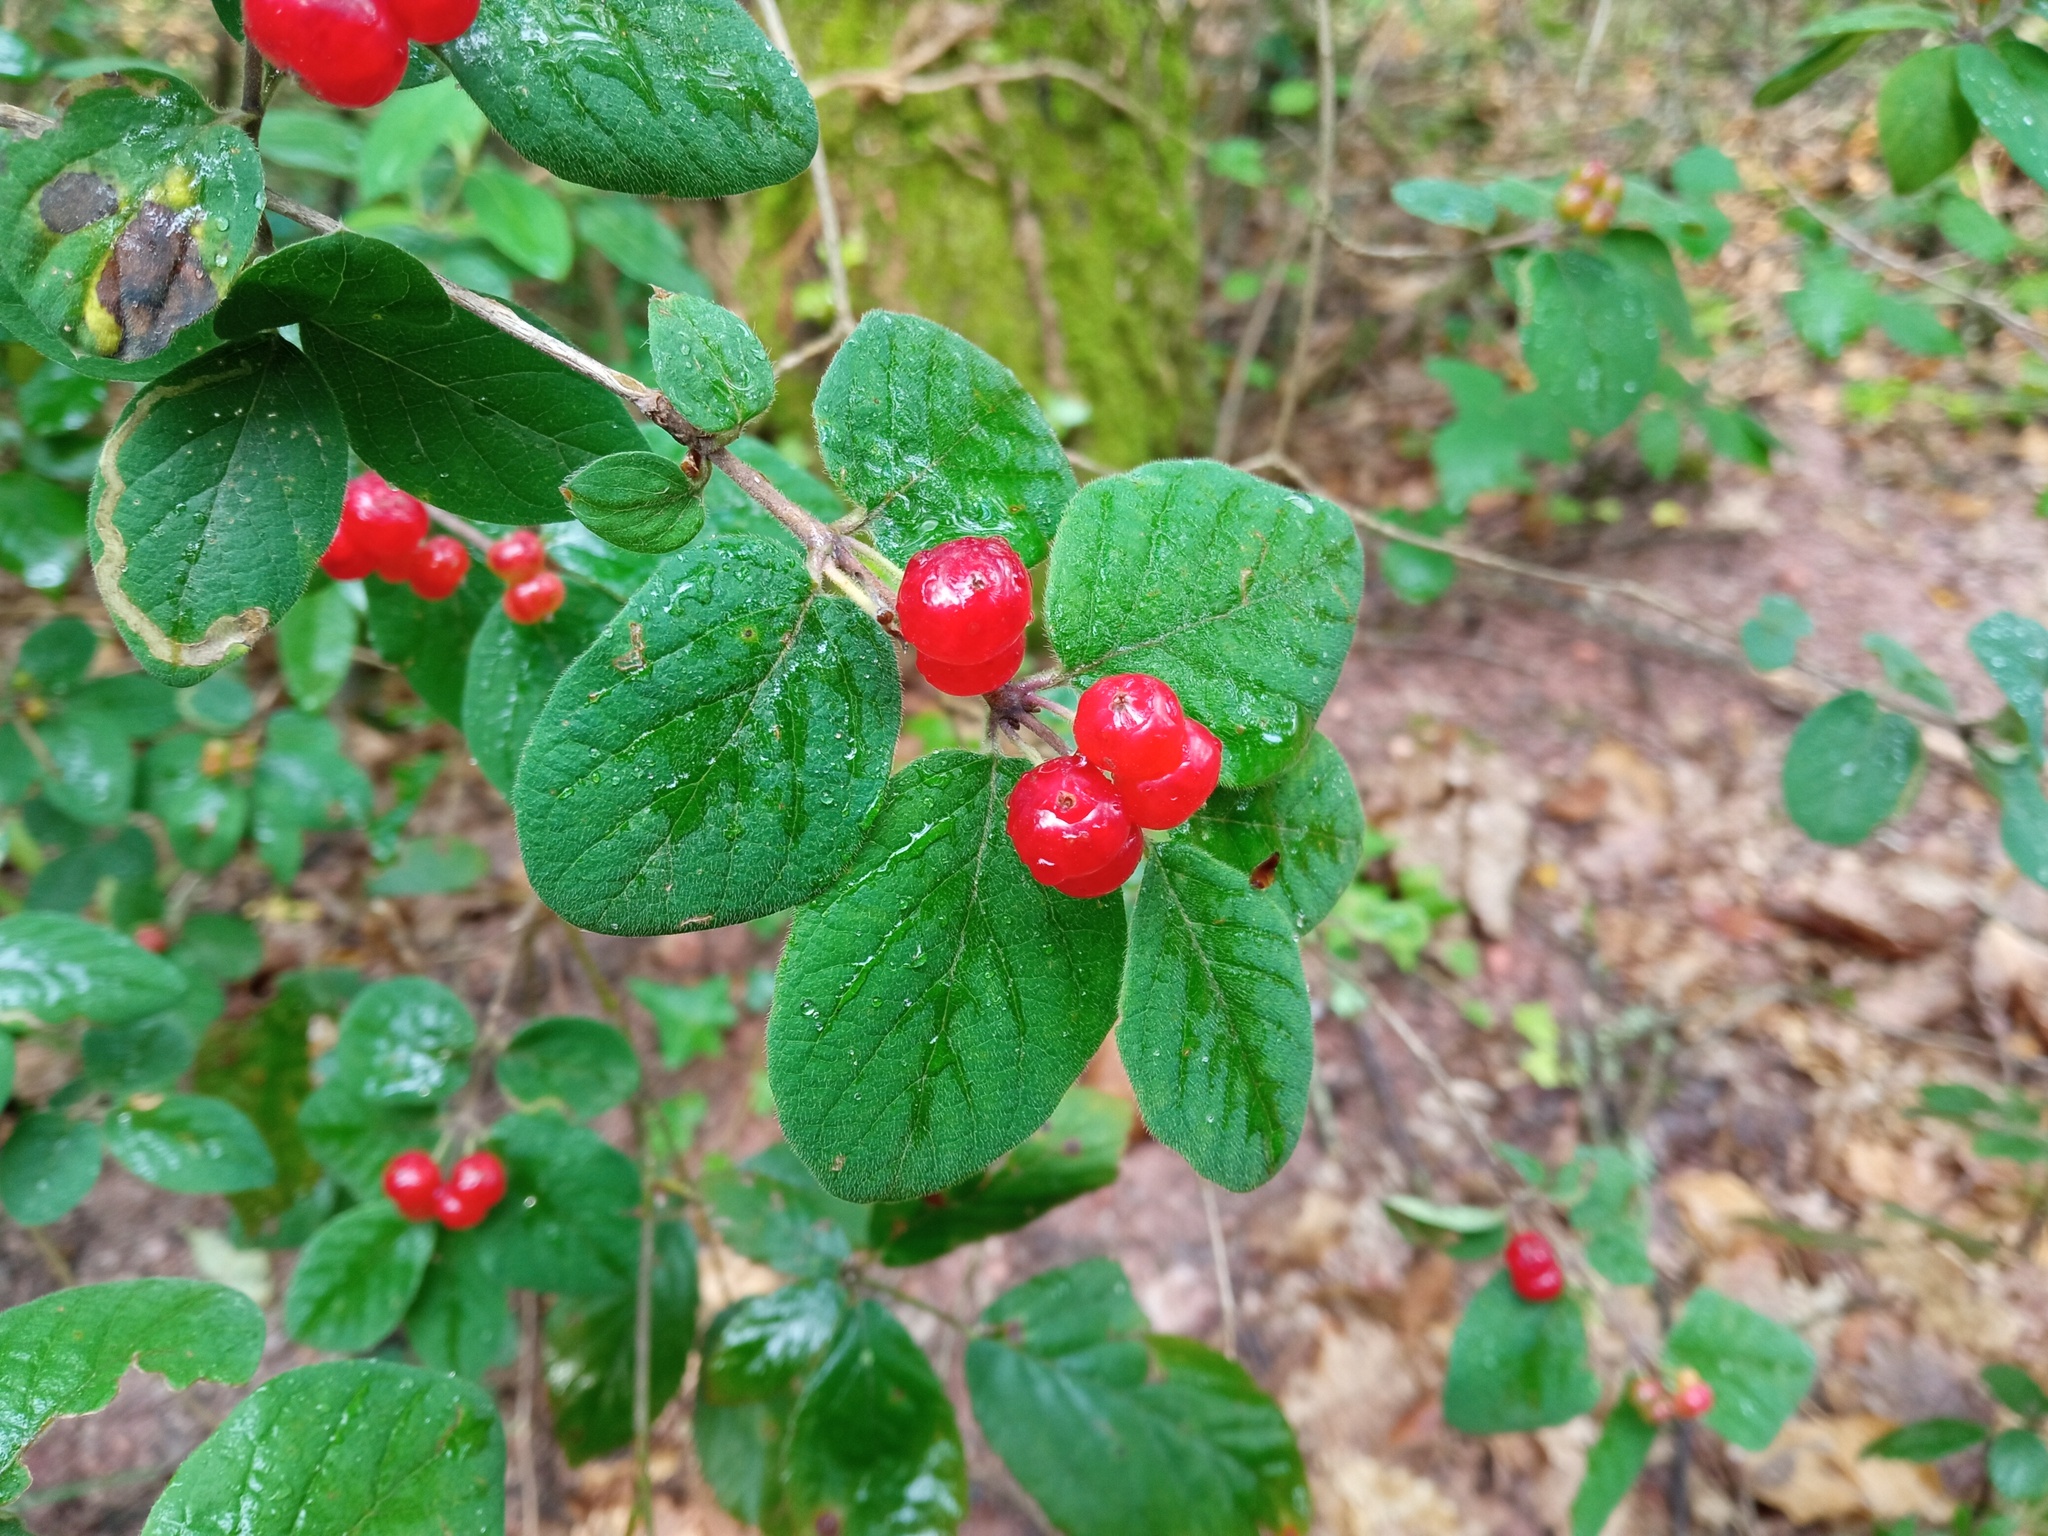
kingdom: Plantae
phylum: Tracheophyta
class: Magnoliopsida
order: Dipsacales
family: Caprifoliaceae
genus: Lonicera
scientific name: Lonicera xylosteum
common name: Fly honeysuckle
